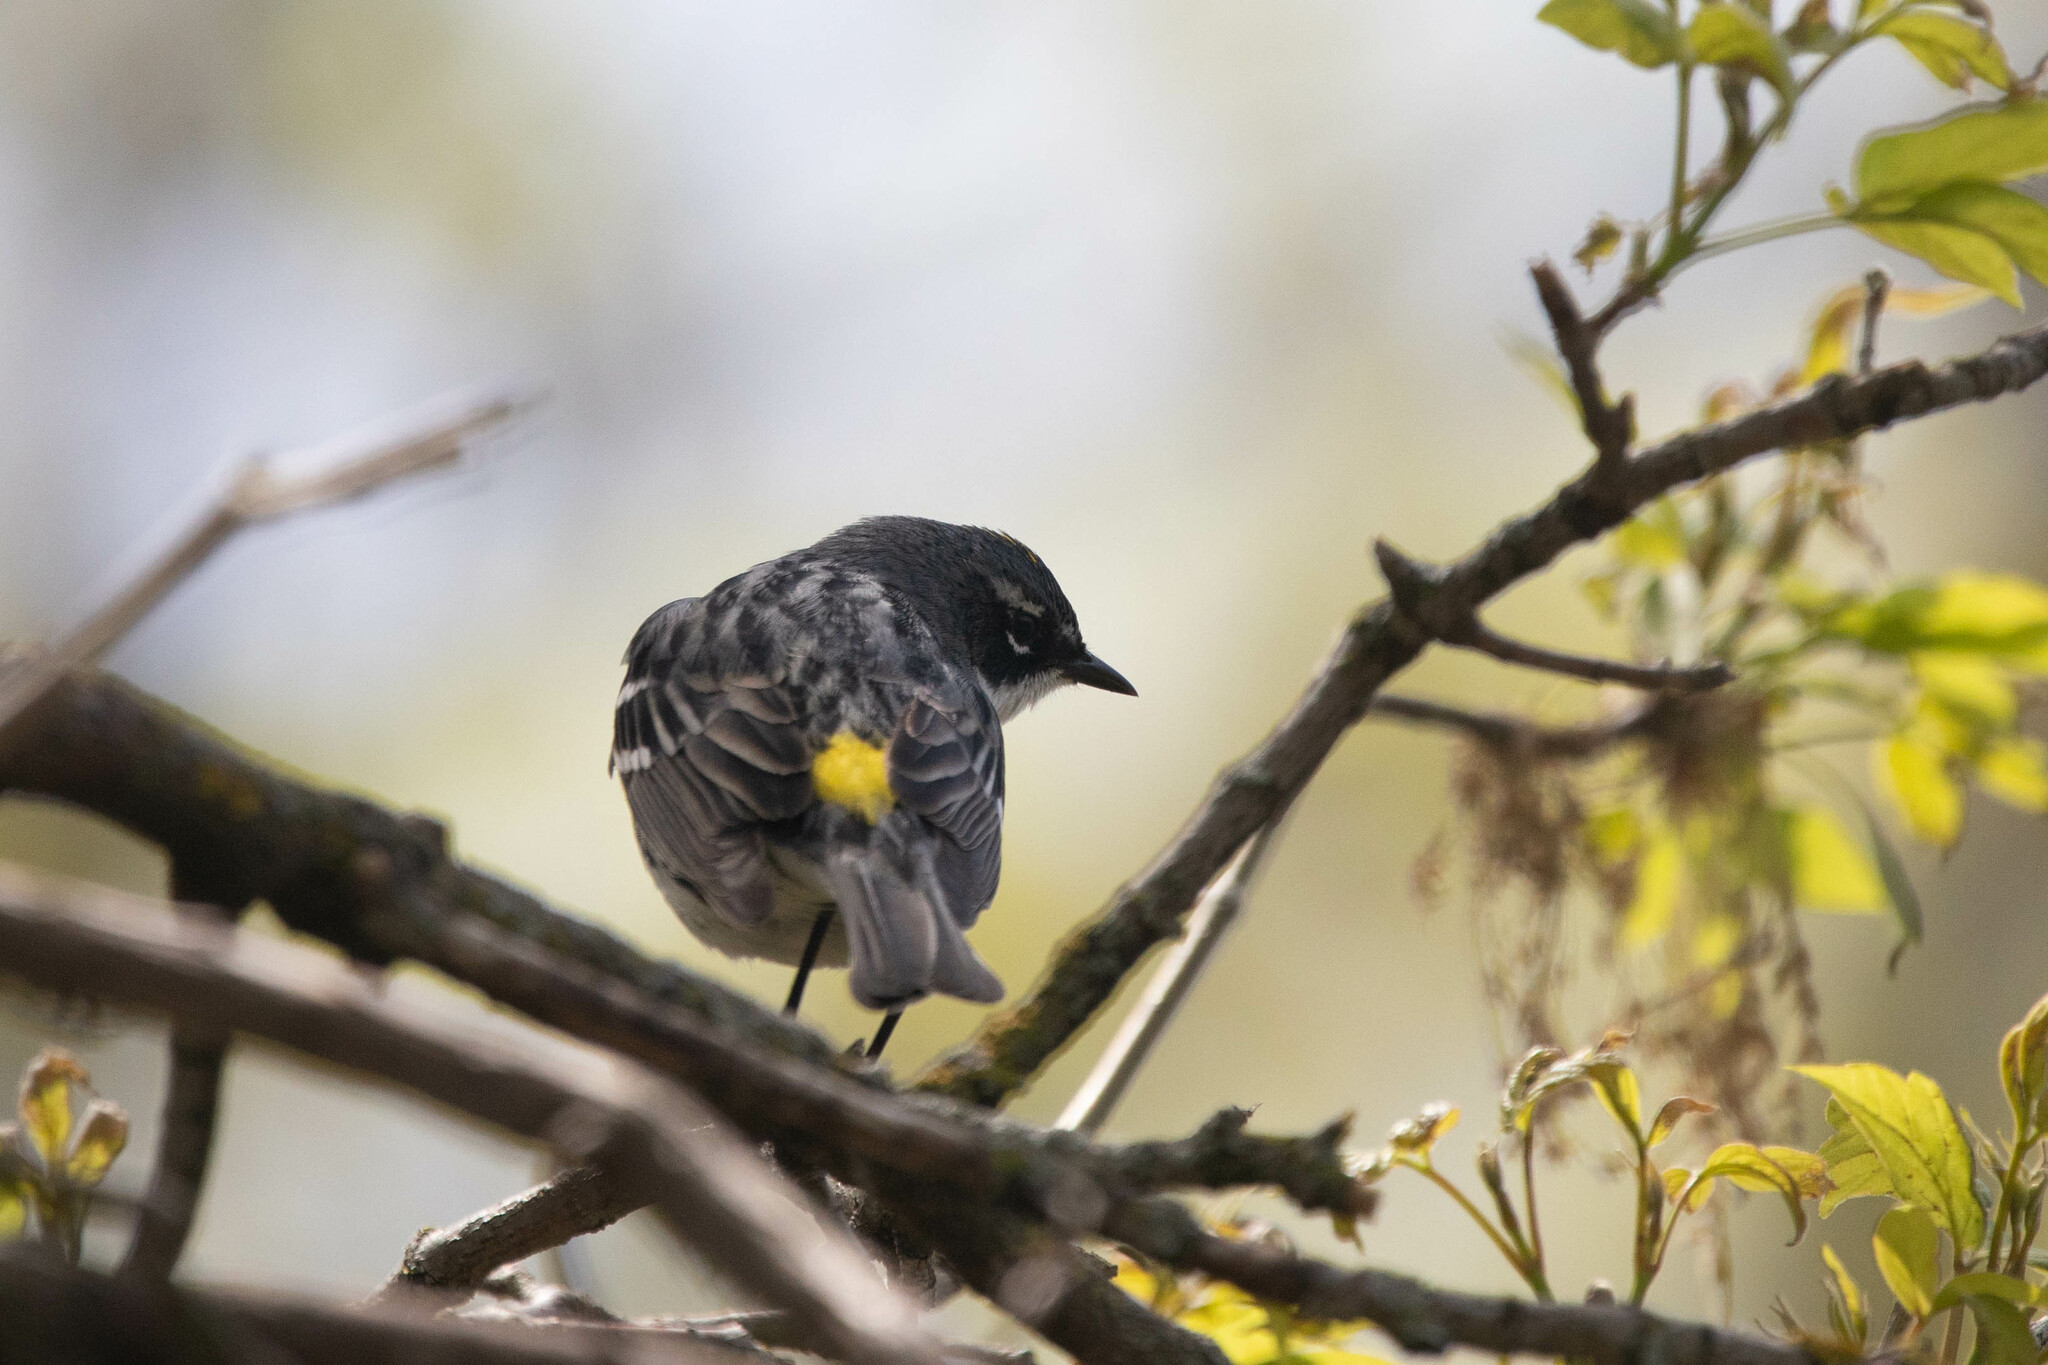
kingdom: Animalia
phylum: Chordata
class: Aves
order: Passeriformes
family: Parulidae
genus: Setophaga
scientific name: Setophaga coronata
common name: Myrtle warbler
